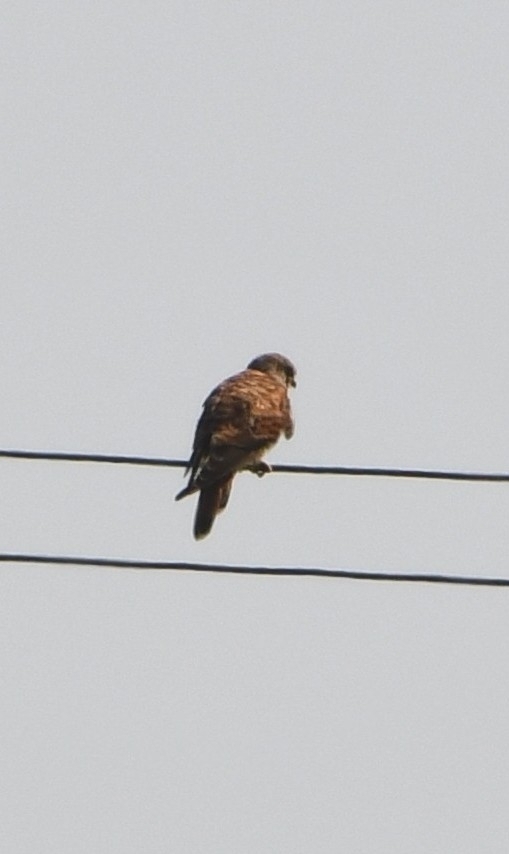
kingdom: Animalia
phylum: Chordata
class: Aves
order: Falconiformes
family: Falconidae
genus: Falco
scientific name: Falco tinnunculus
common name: Common kestrel
